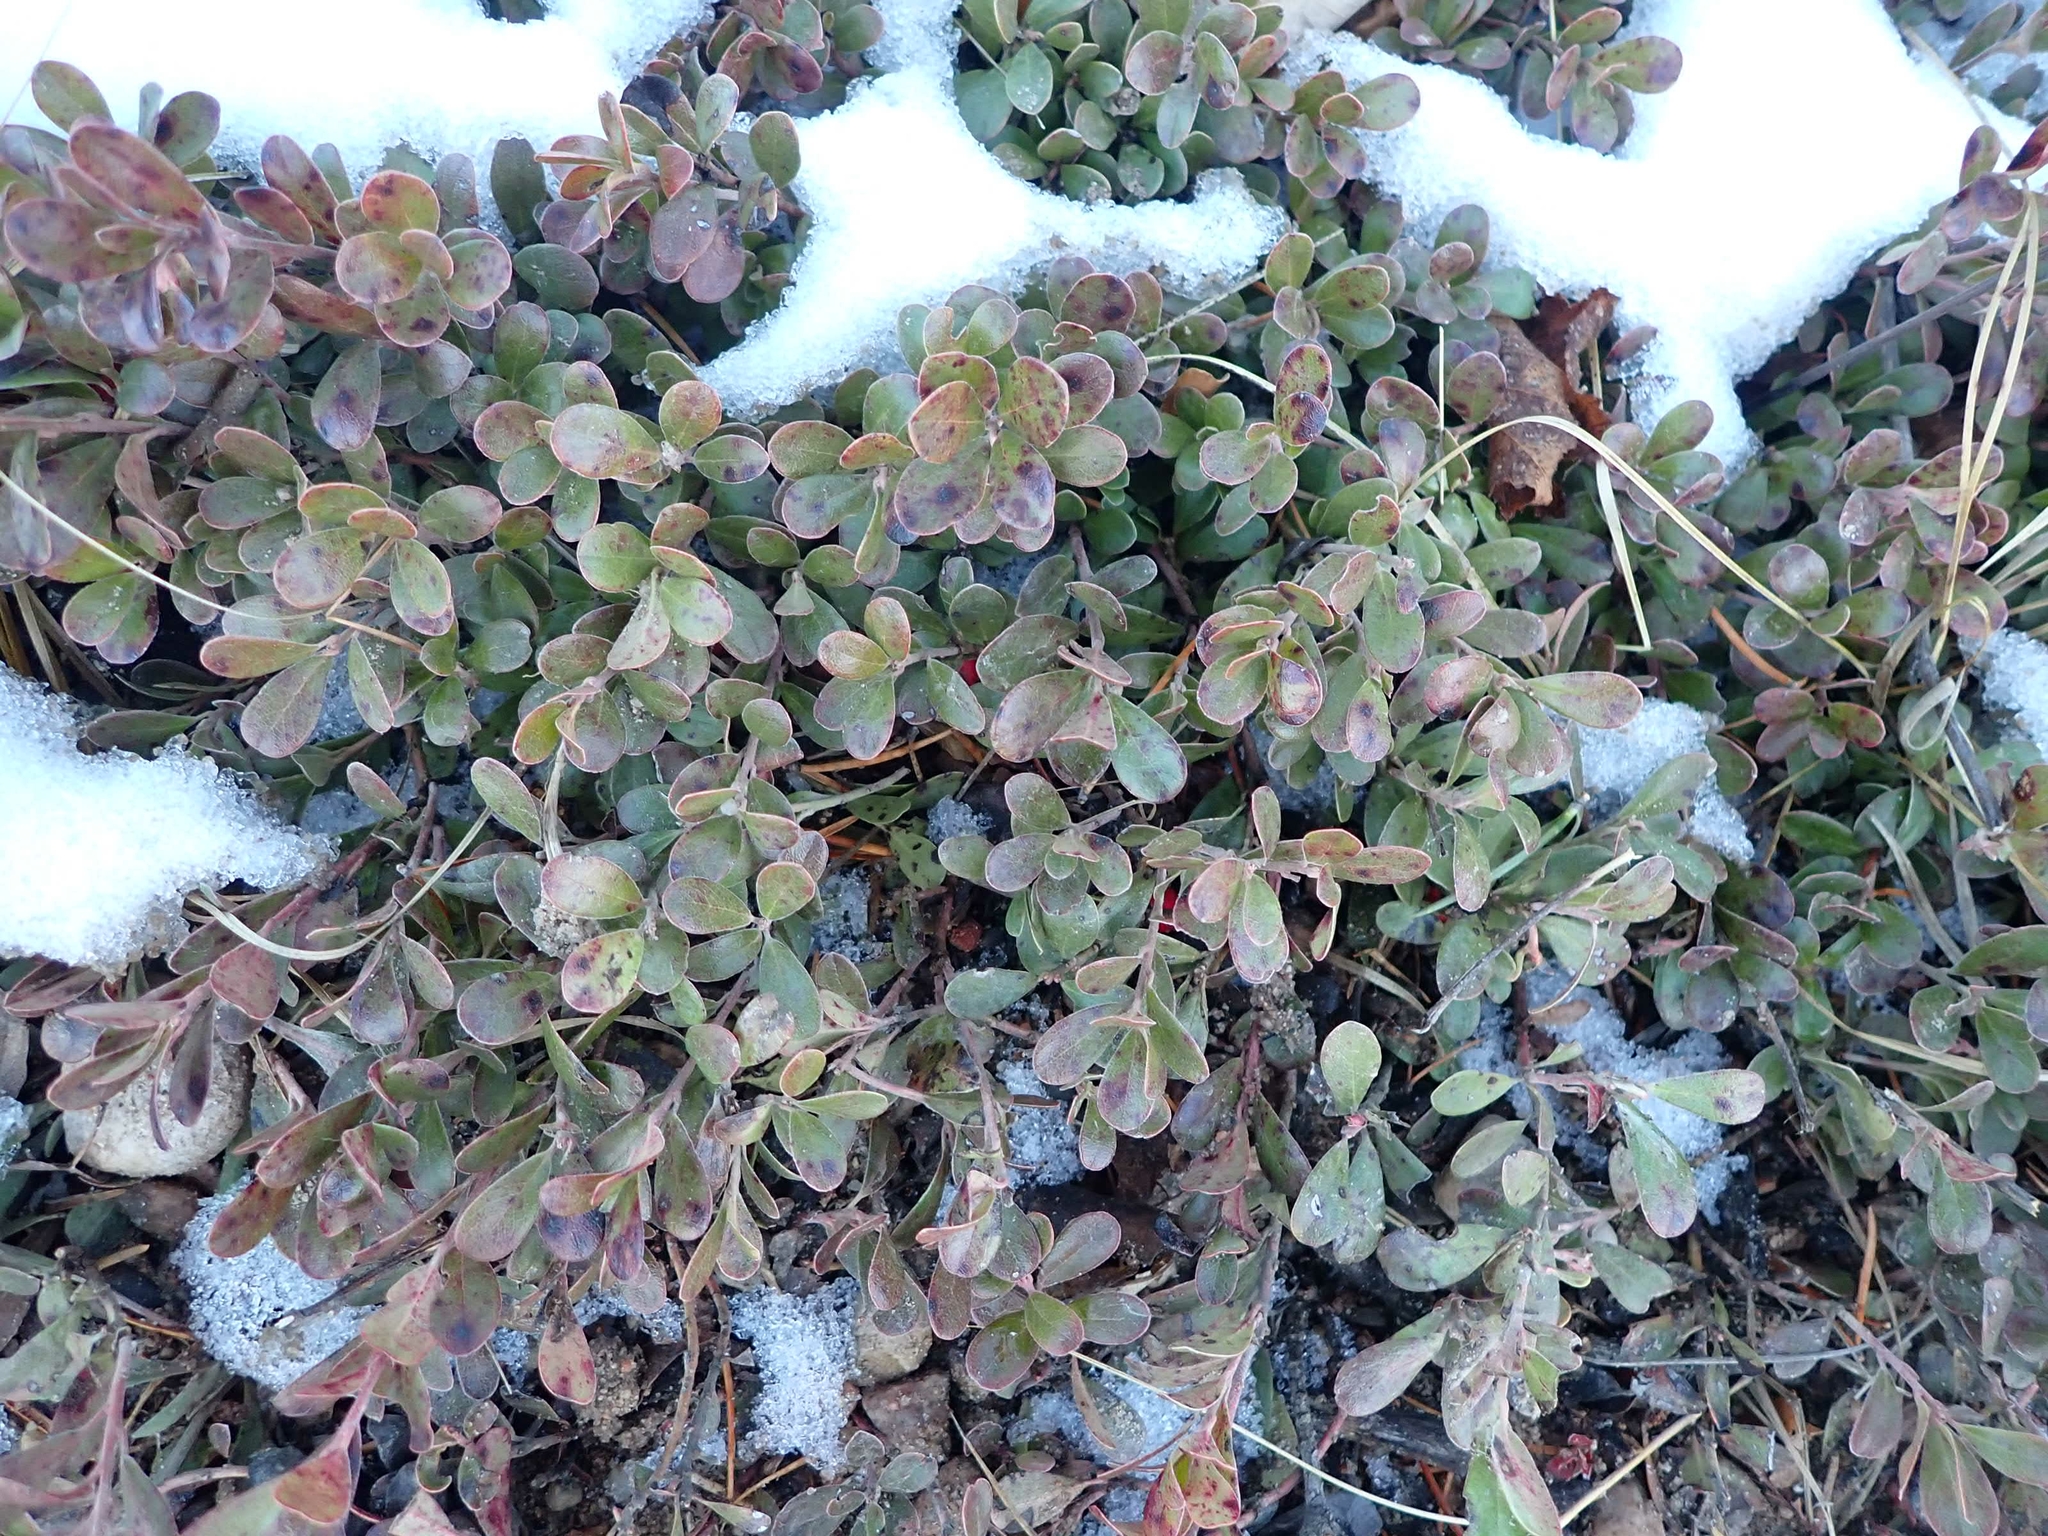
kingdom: Plantae
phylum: Tracheophyta
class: Magnoliopsida
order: Ericales
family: Ericaceae
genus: Arctostaphylos
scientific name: Arctostaphylos uva-ursi
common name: Bearberry
